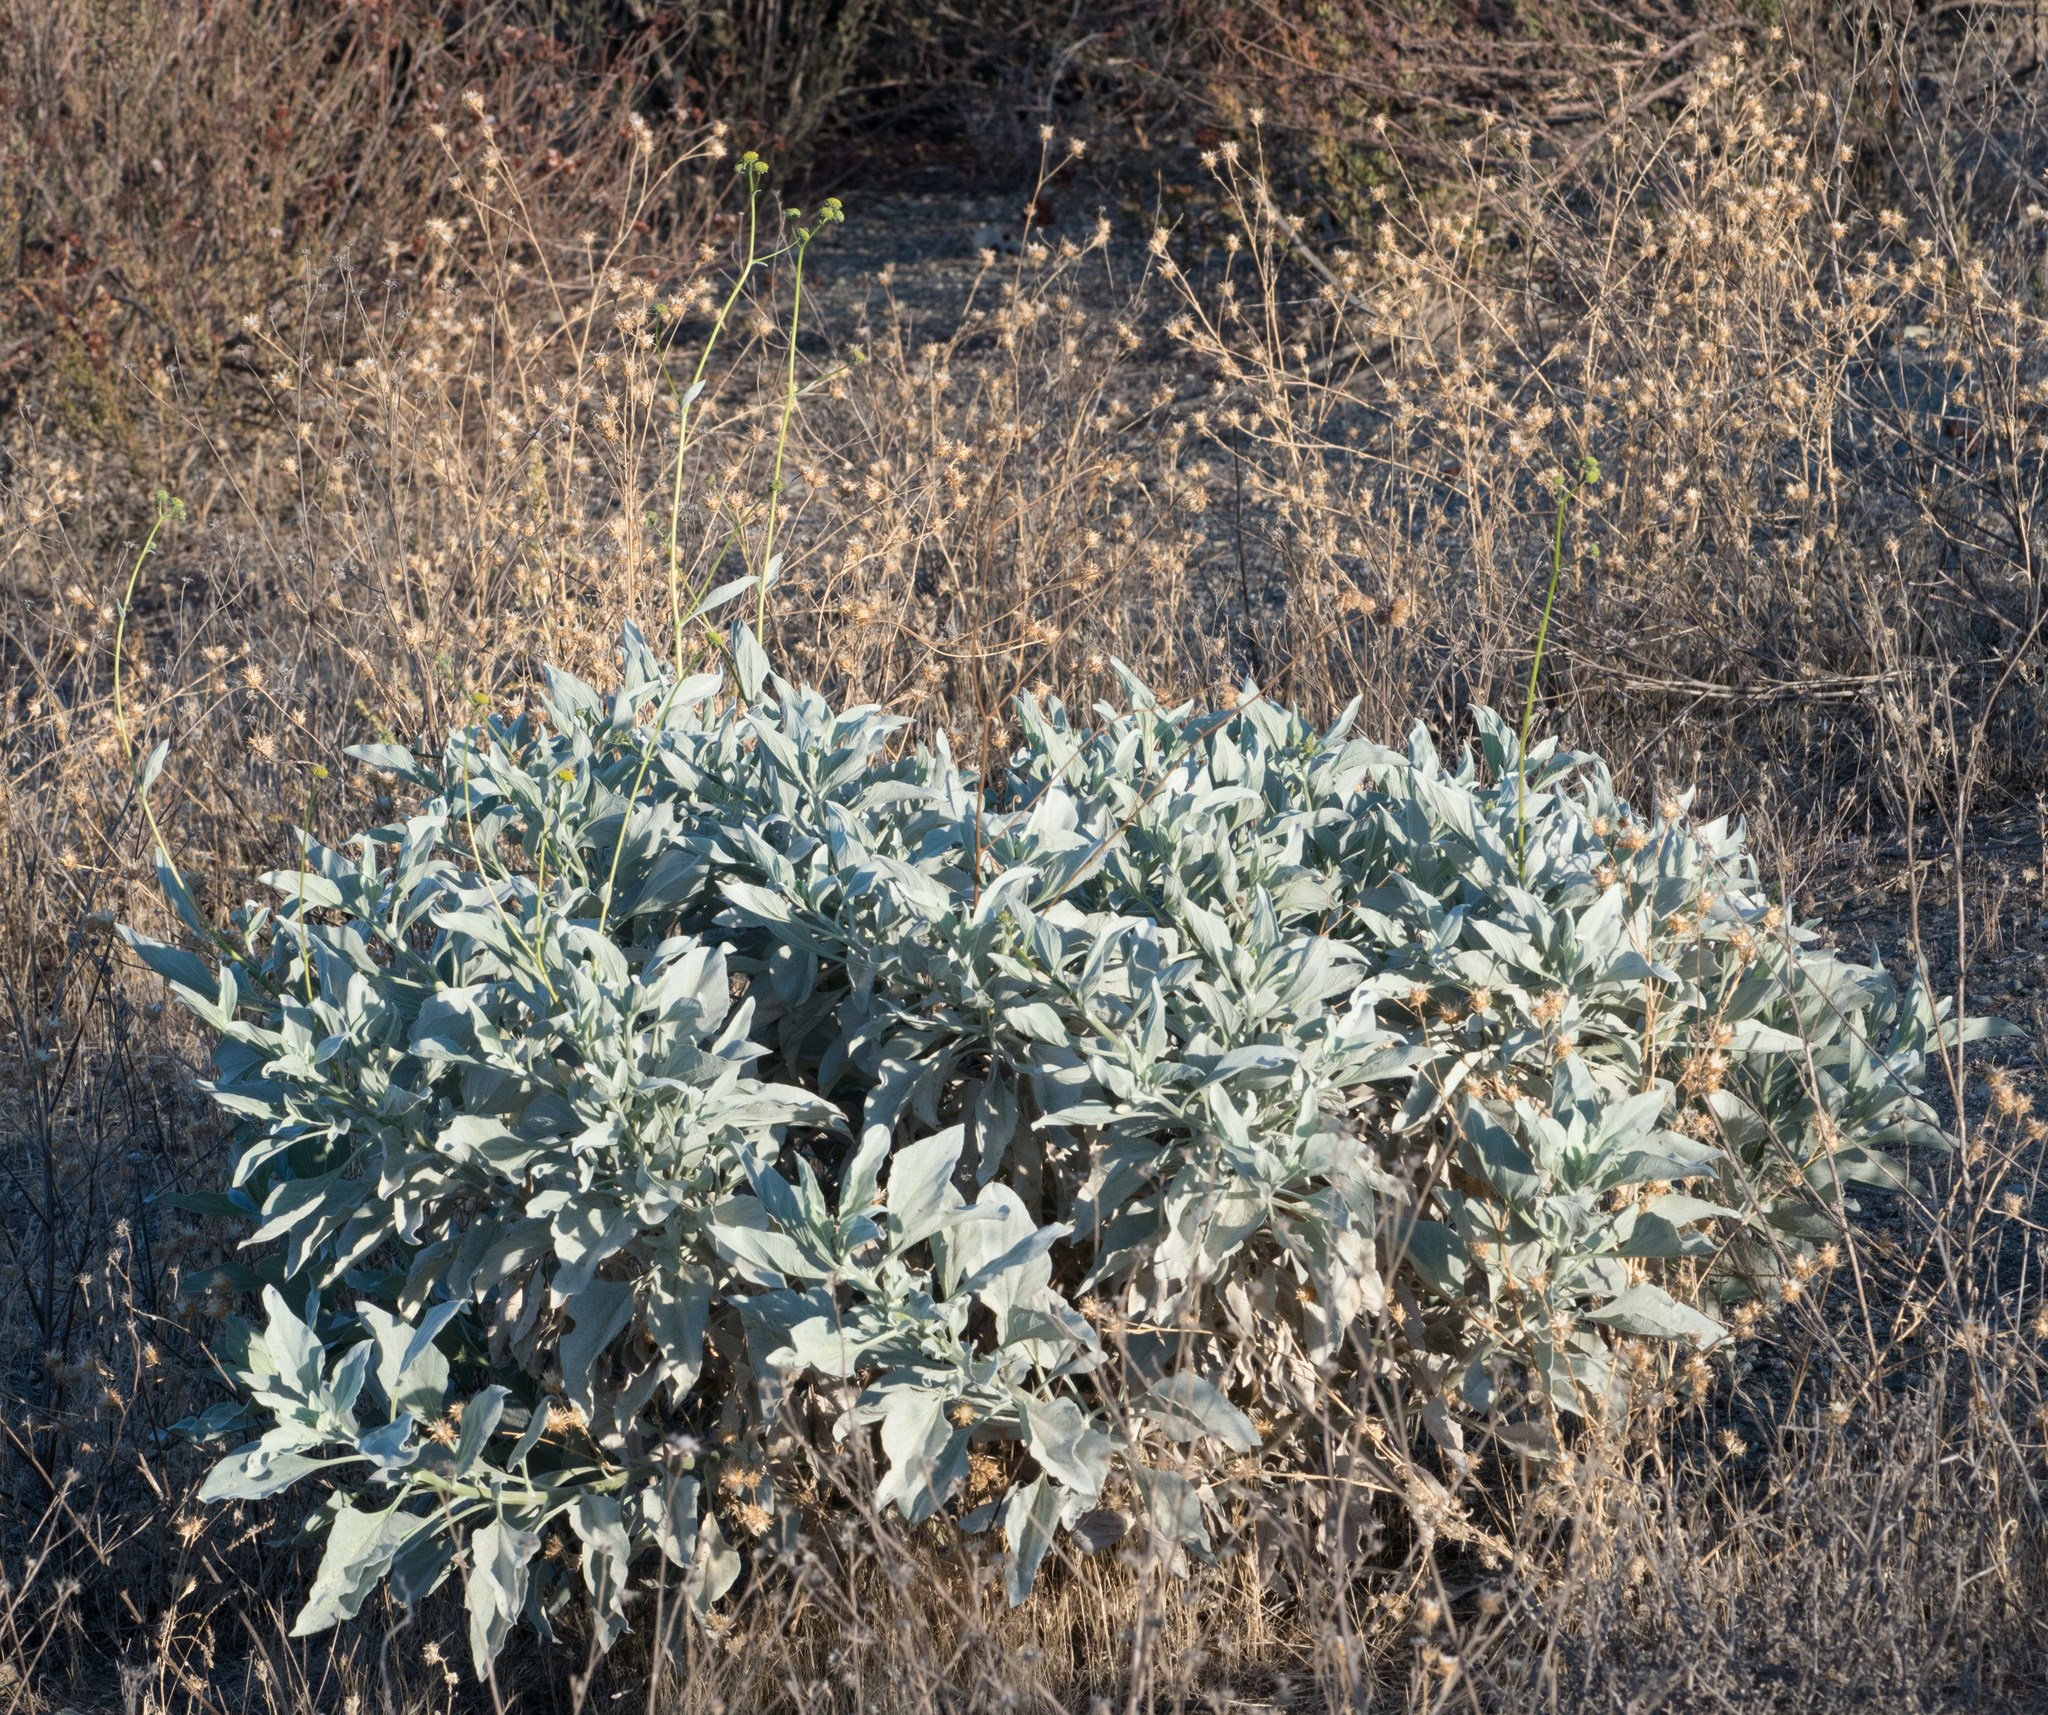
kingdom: Plantae
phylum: Tracheophyta
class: Magnoliopsida
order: Asterales
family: Asteraceae
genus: Encelia
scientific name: Encelia farinosa
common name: Brittlebush
